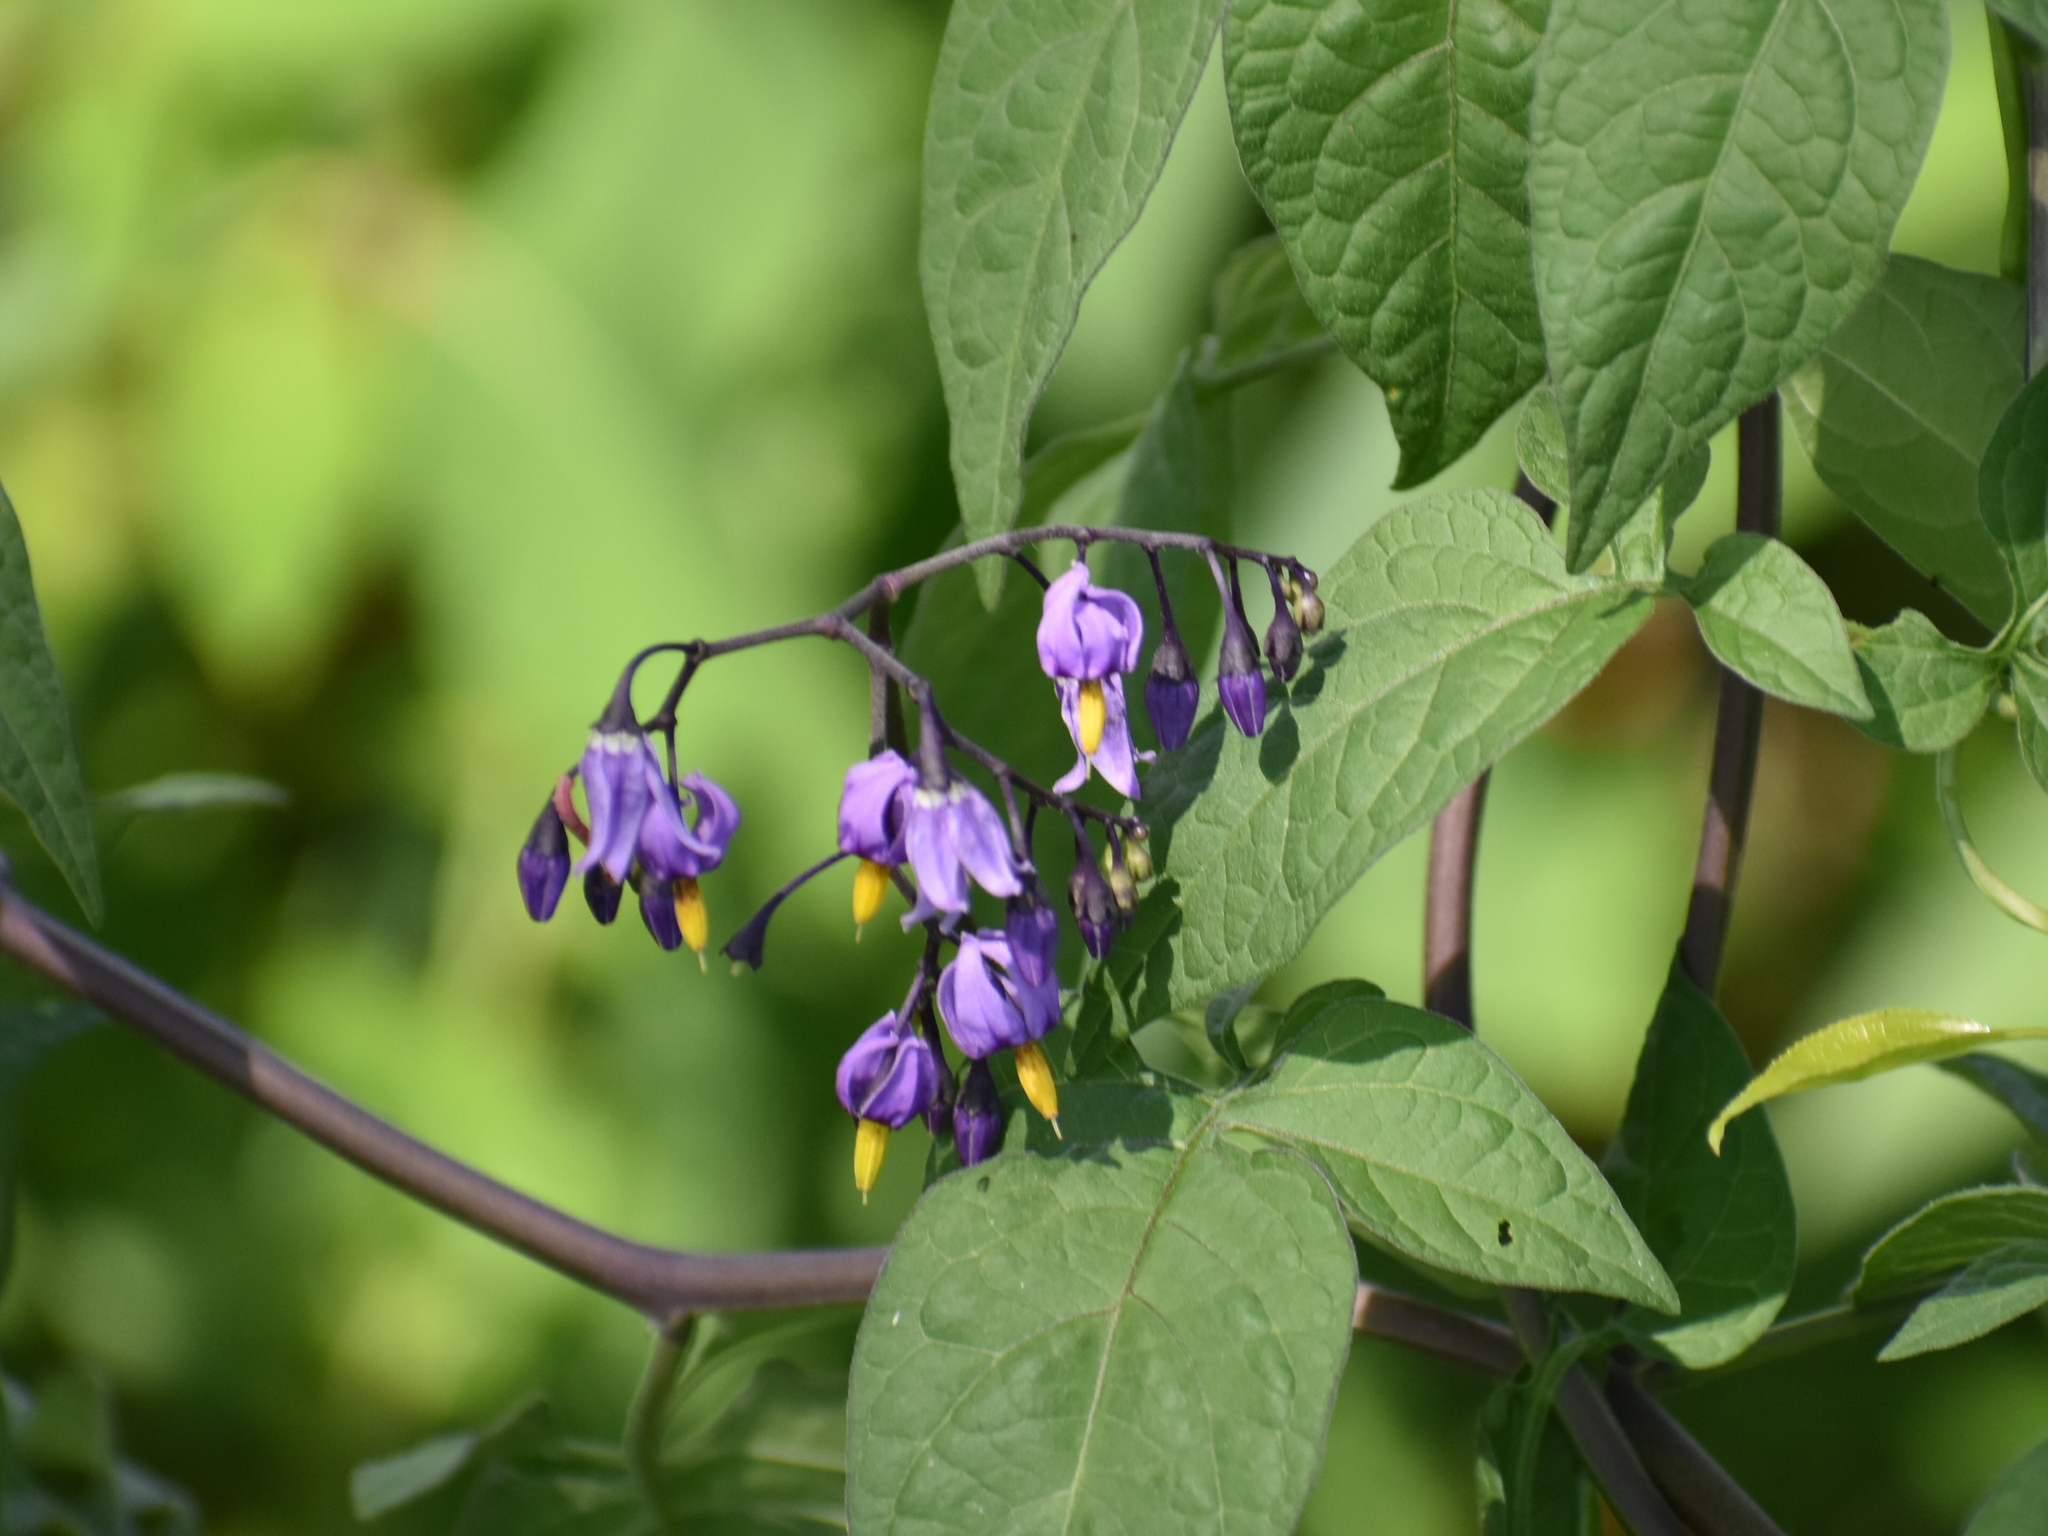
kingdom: Plantae
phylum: Tracheophyta
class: Magnoliopsida
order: Solanales
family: Solanaceae
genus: Solanum
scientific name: Solanum dulcamara
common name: Climbing nightshade
